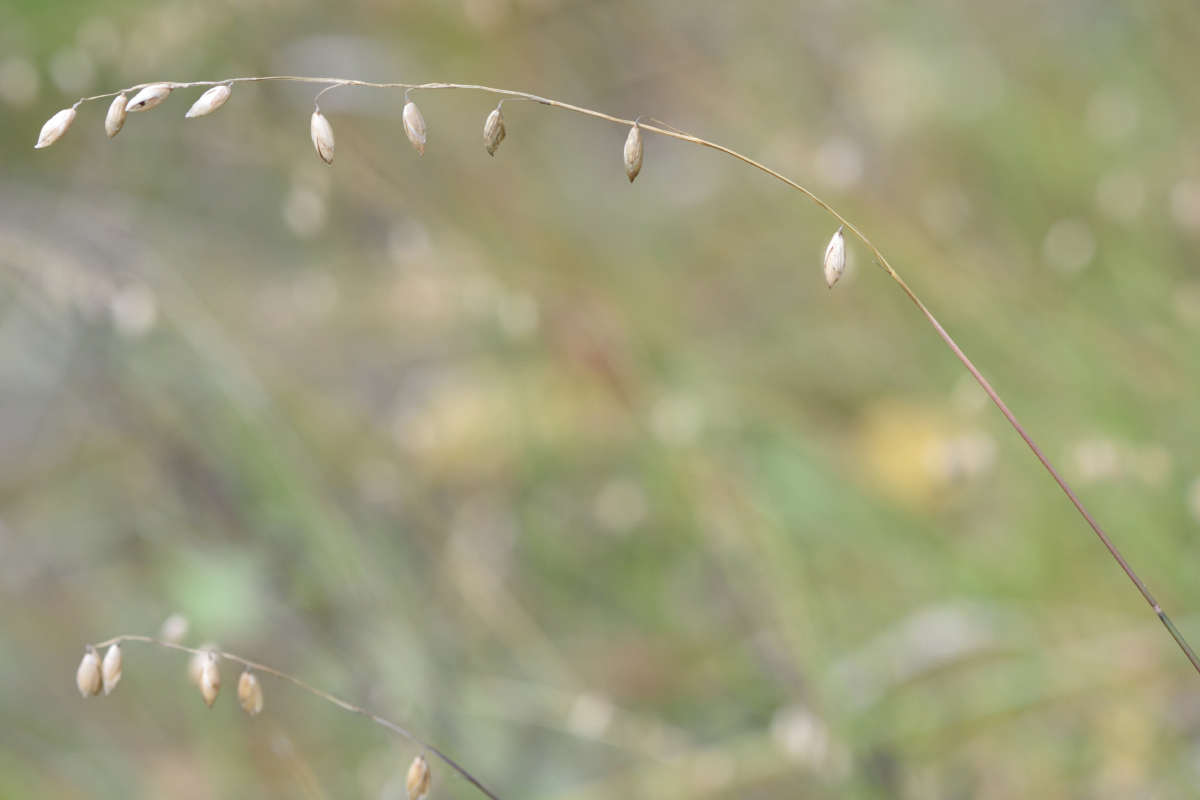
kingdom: Plantae
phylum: Tracheophyta
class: Liliopsida
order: Poales
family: Poaceae
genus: Melica
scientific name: Melica nutans
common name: Mountain melick
